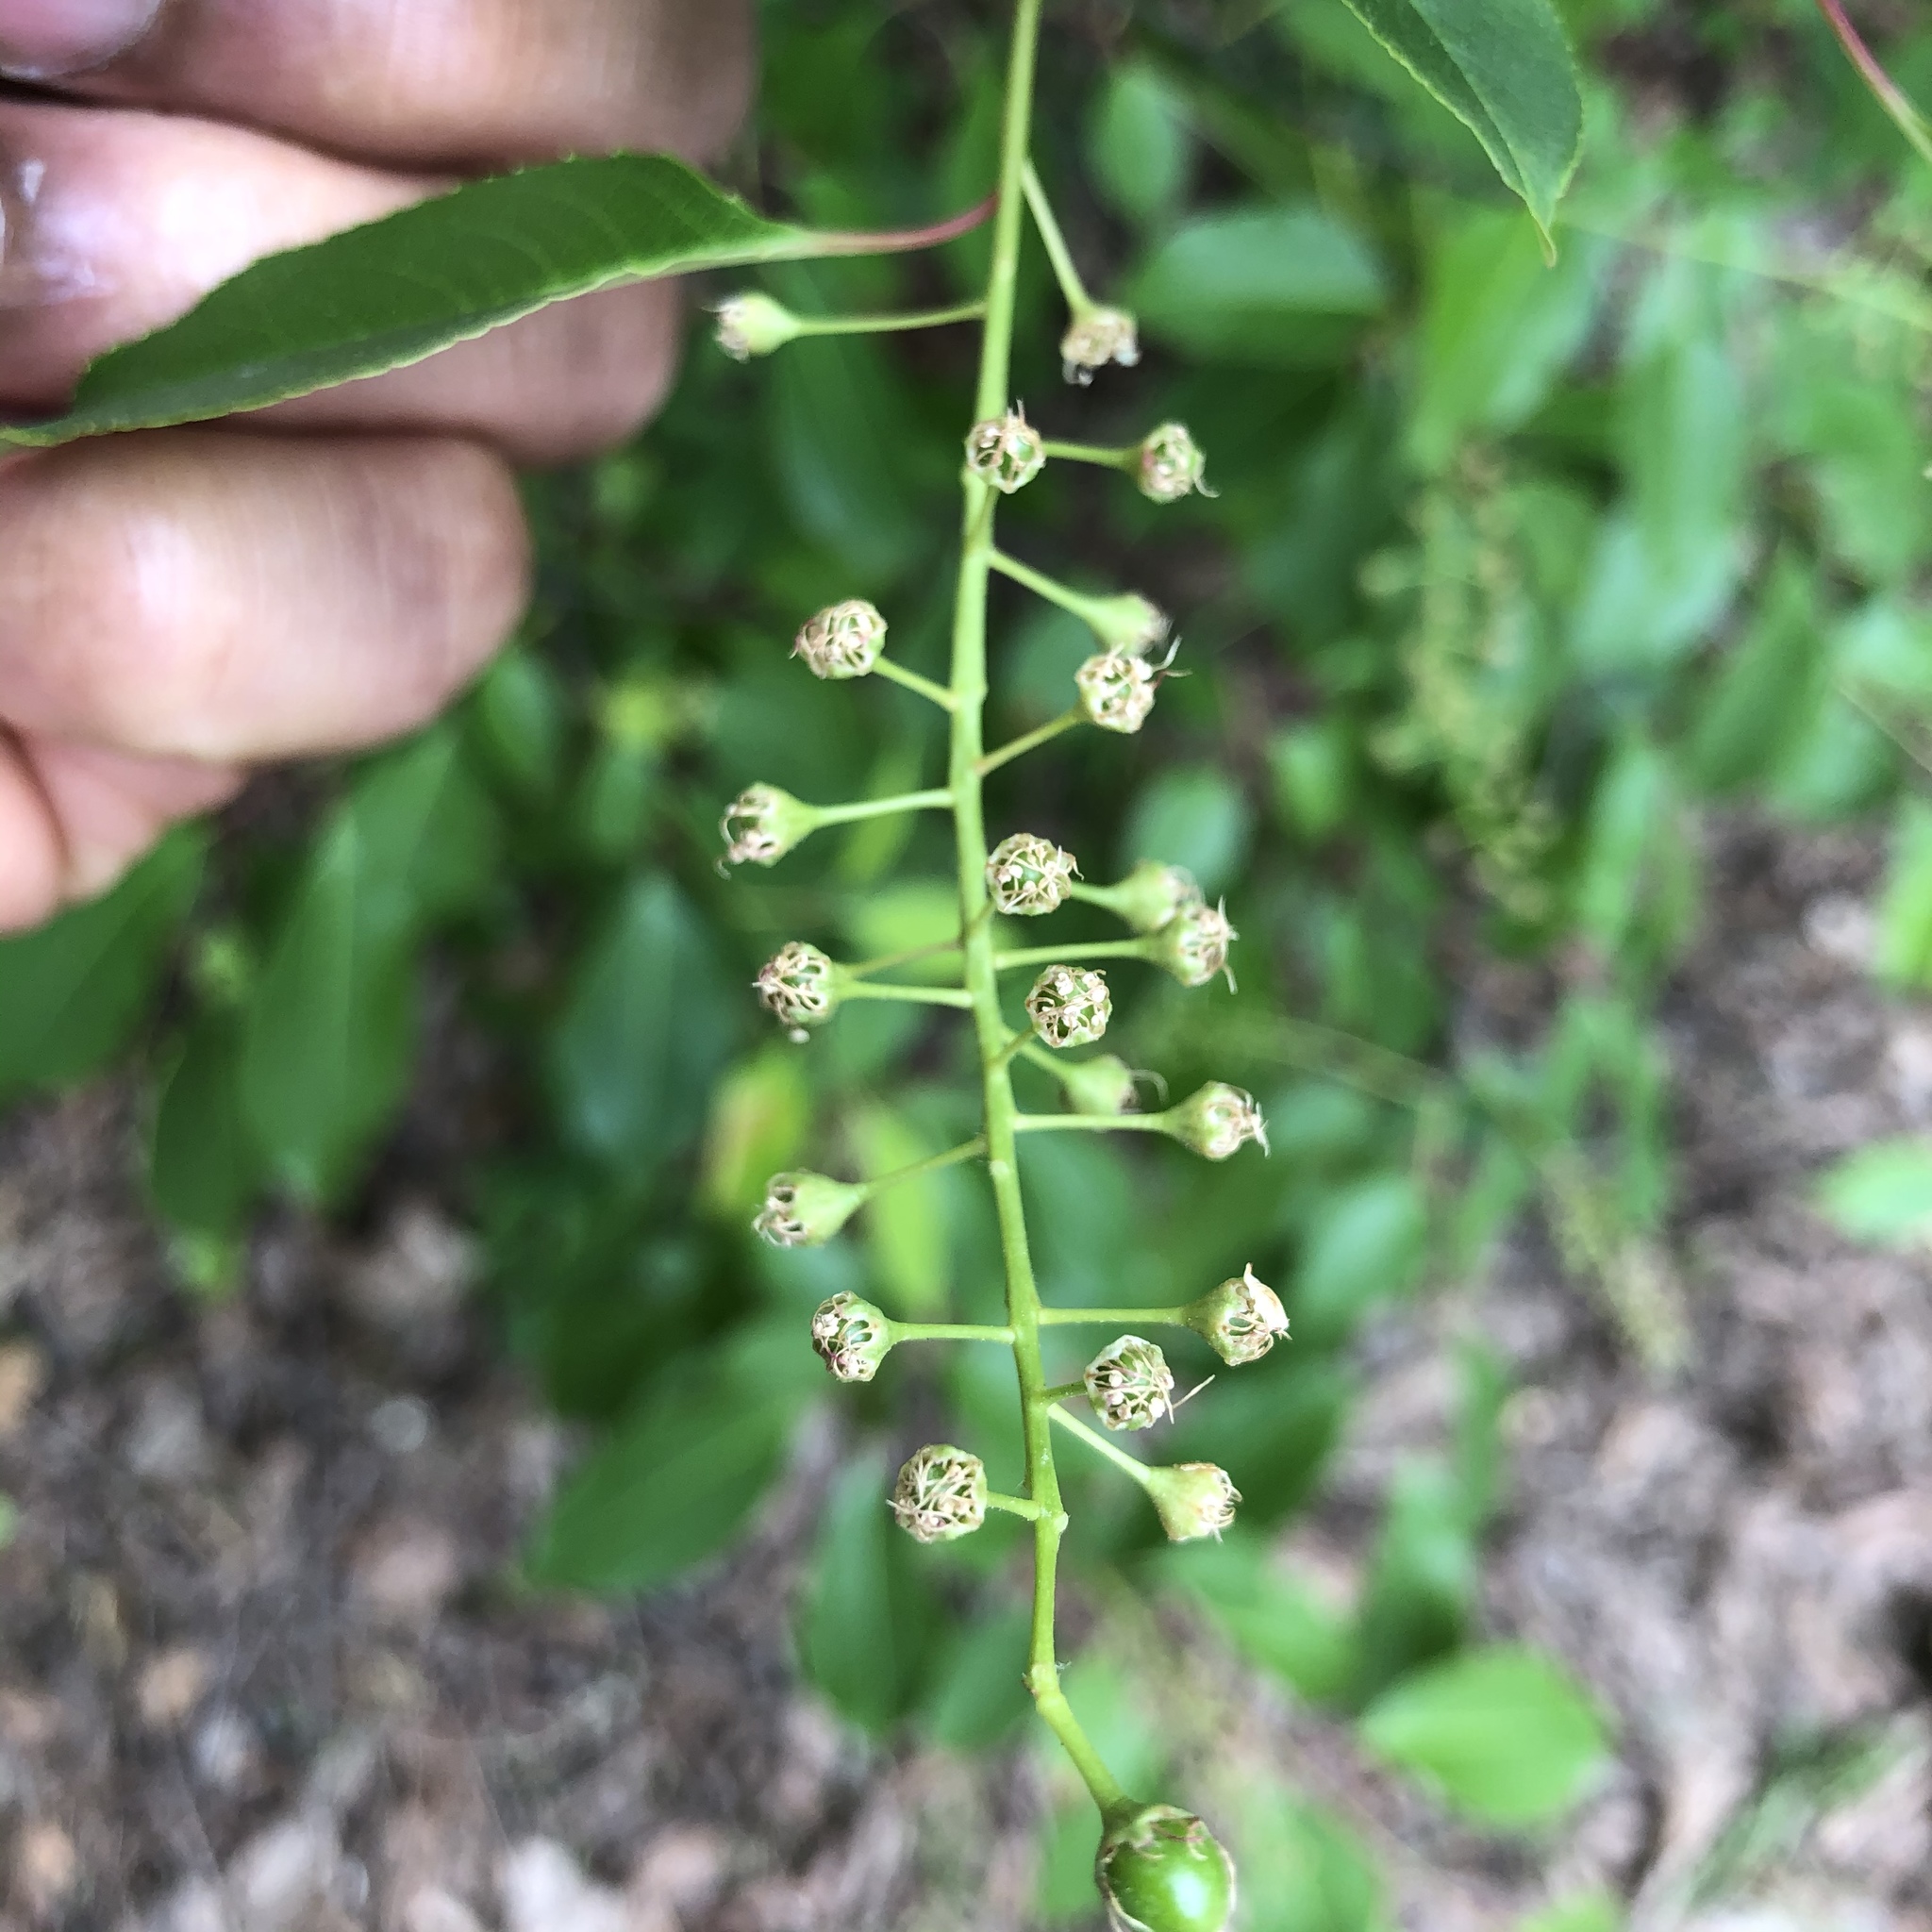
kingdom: Plantae
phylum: Tracheophyta
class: Magnoliopsida
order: Rosales
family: Rosaceae
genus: Prunus
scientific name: Prunus serotina
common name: Black cherry
